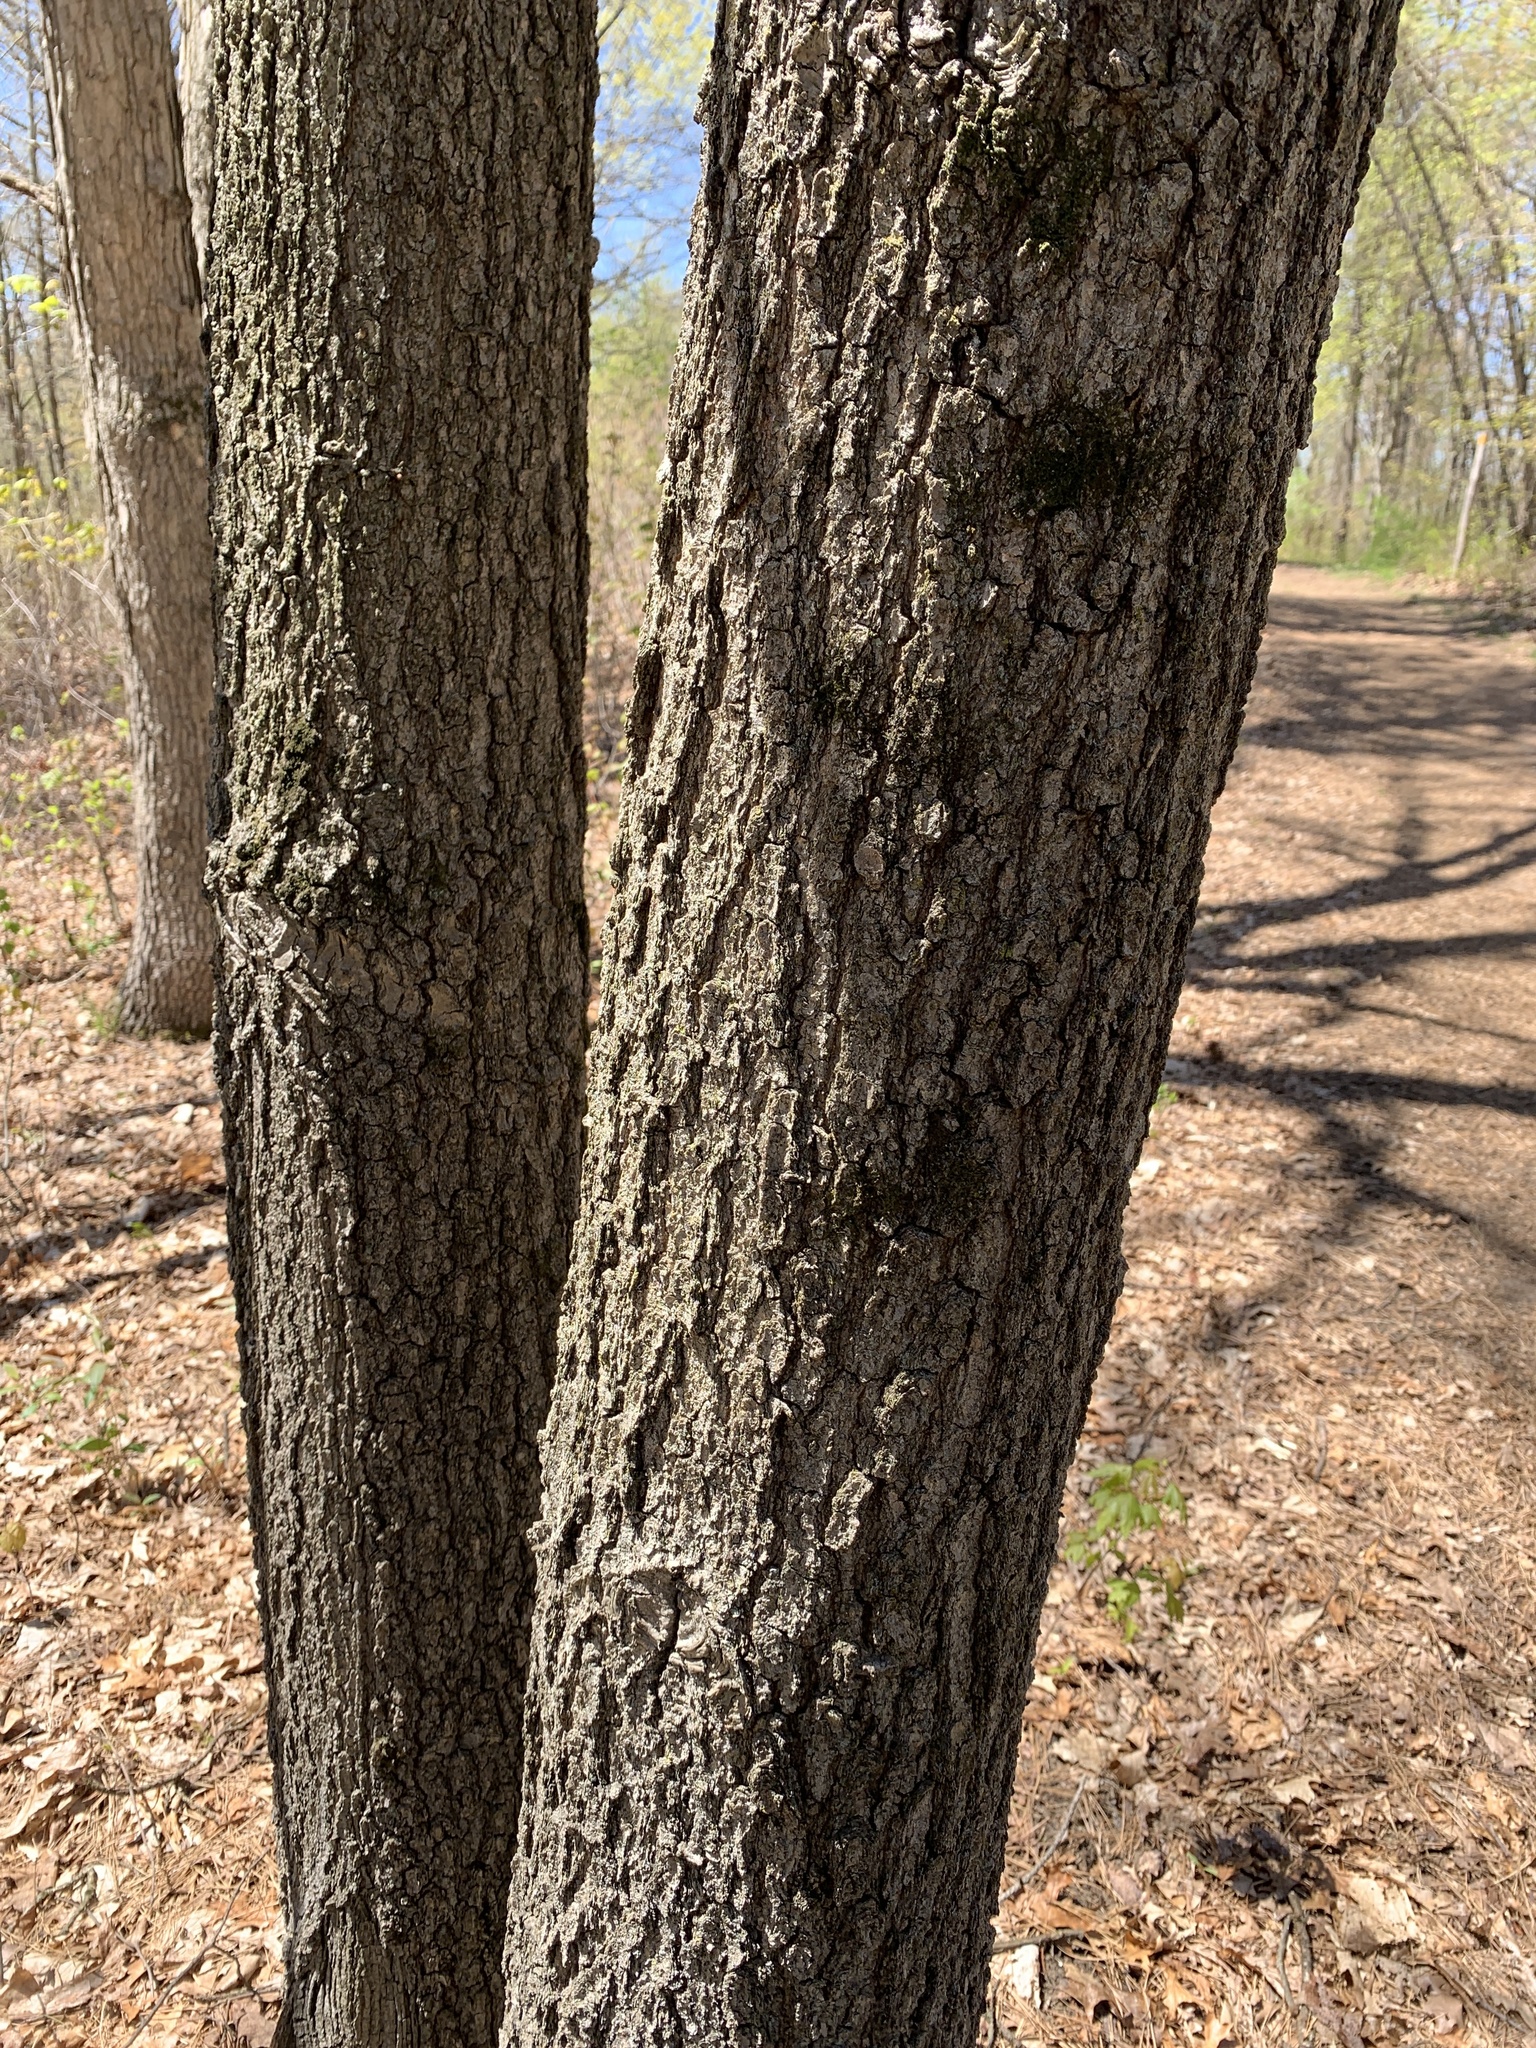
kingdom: Plantae
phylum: Tracheophyta
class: Magnoliopsida
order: Fagales
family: Fagaceae
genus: Quercus
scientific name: Quercus velutina
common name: Black oak
